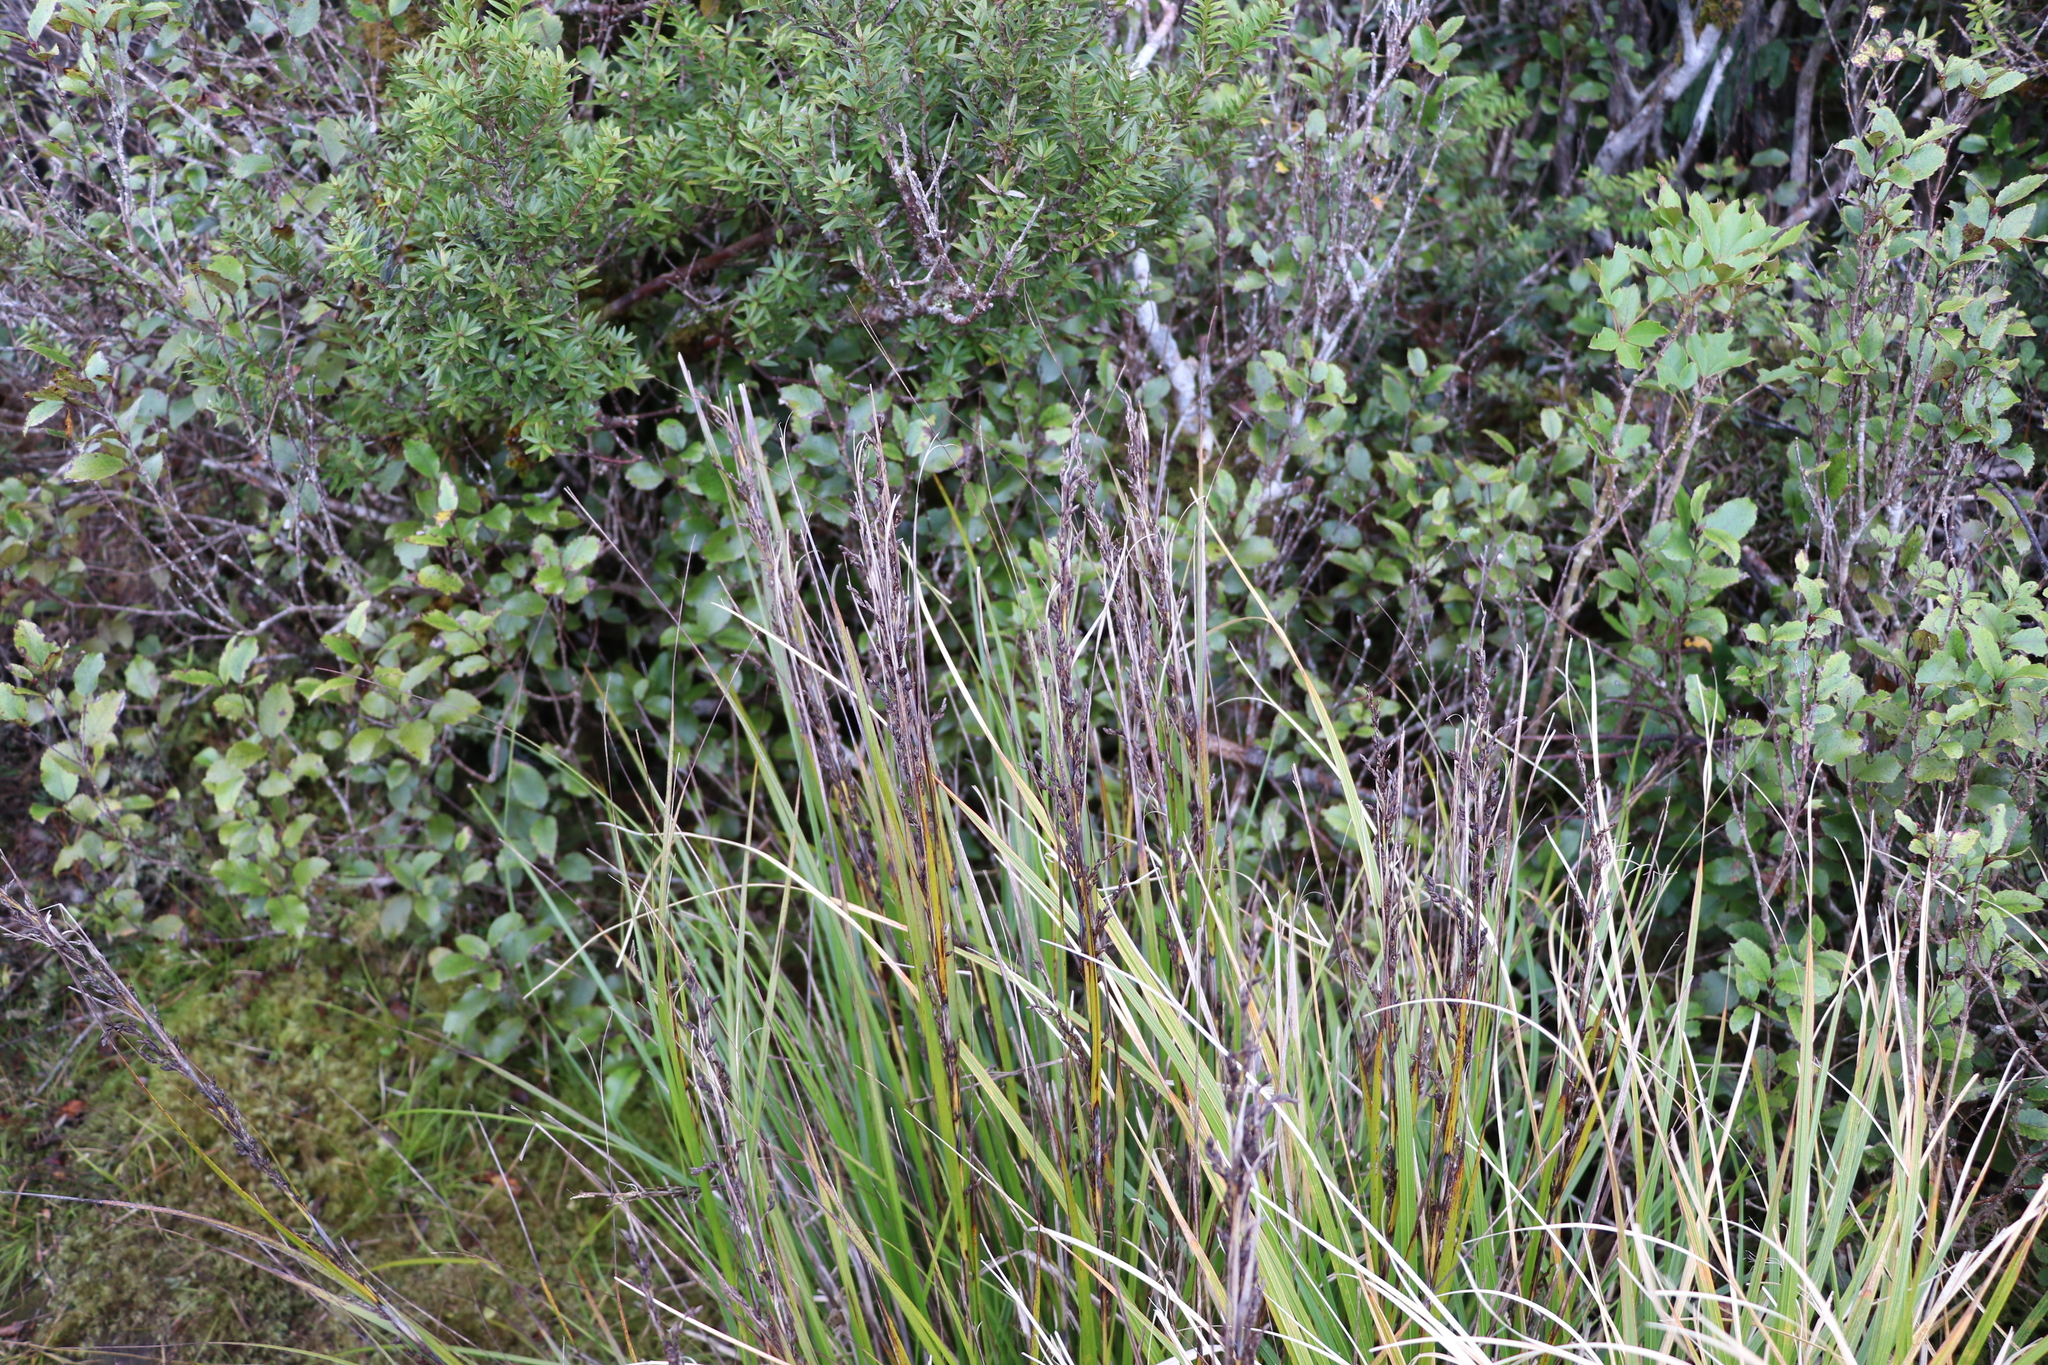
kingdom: Plantae
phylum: Tracheophyta
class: Liliopsida
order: Poales
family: Cyperaceae
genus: Gahnia
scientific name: Gahnia pauciflora
